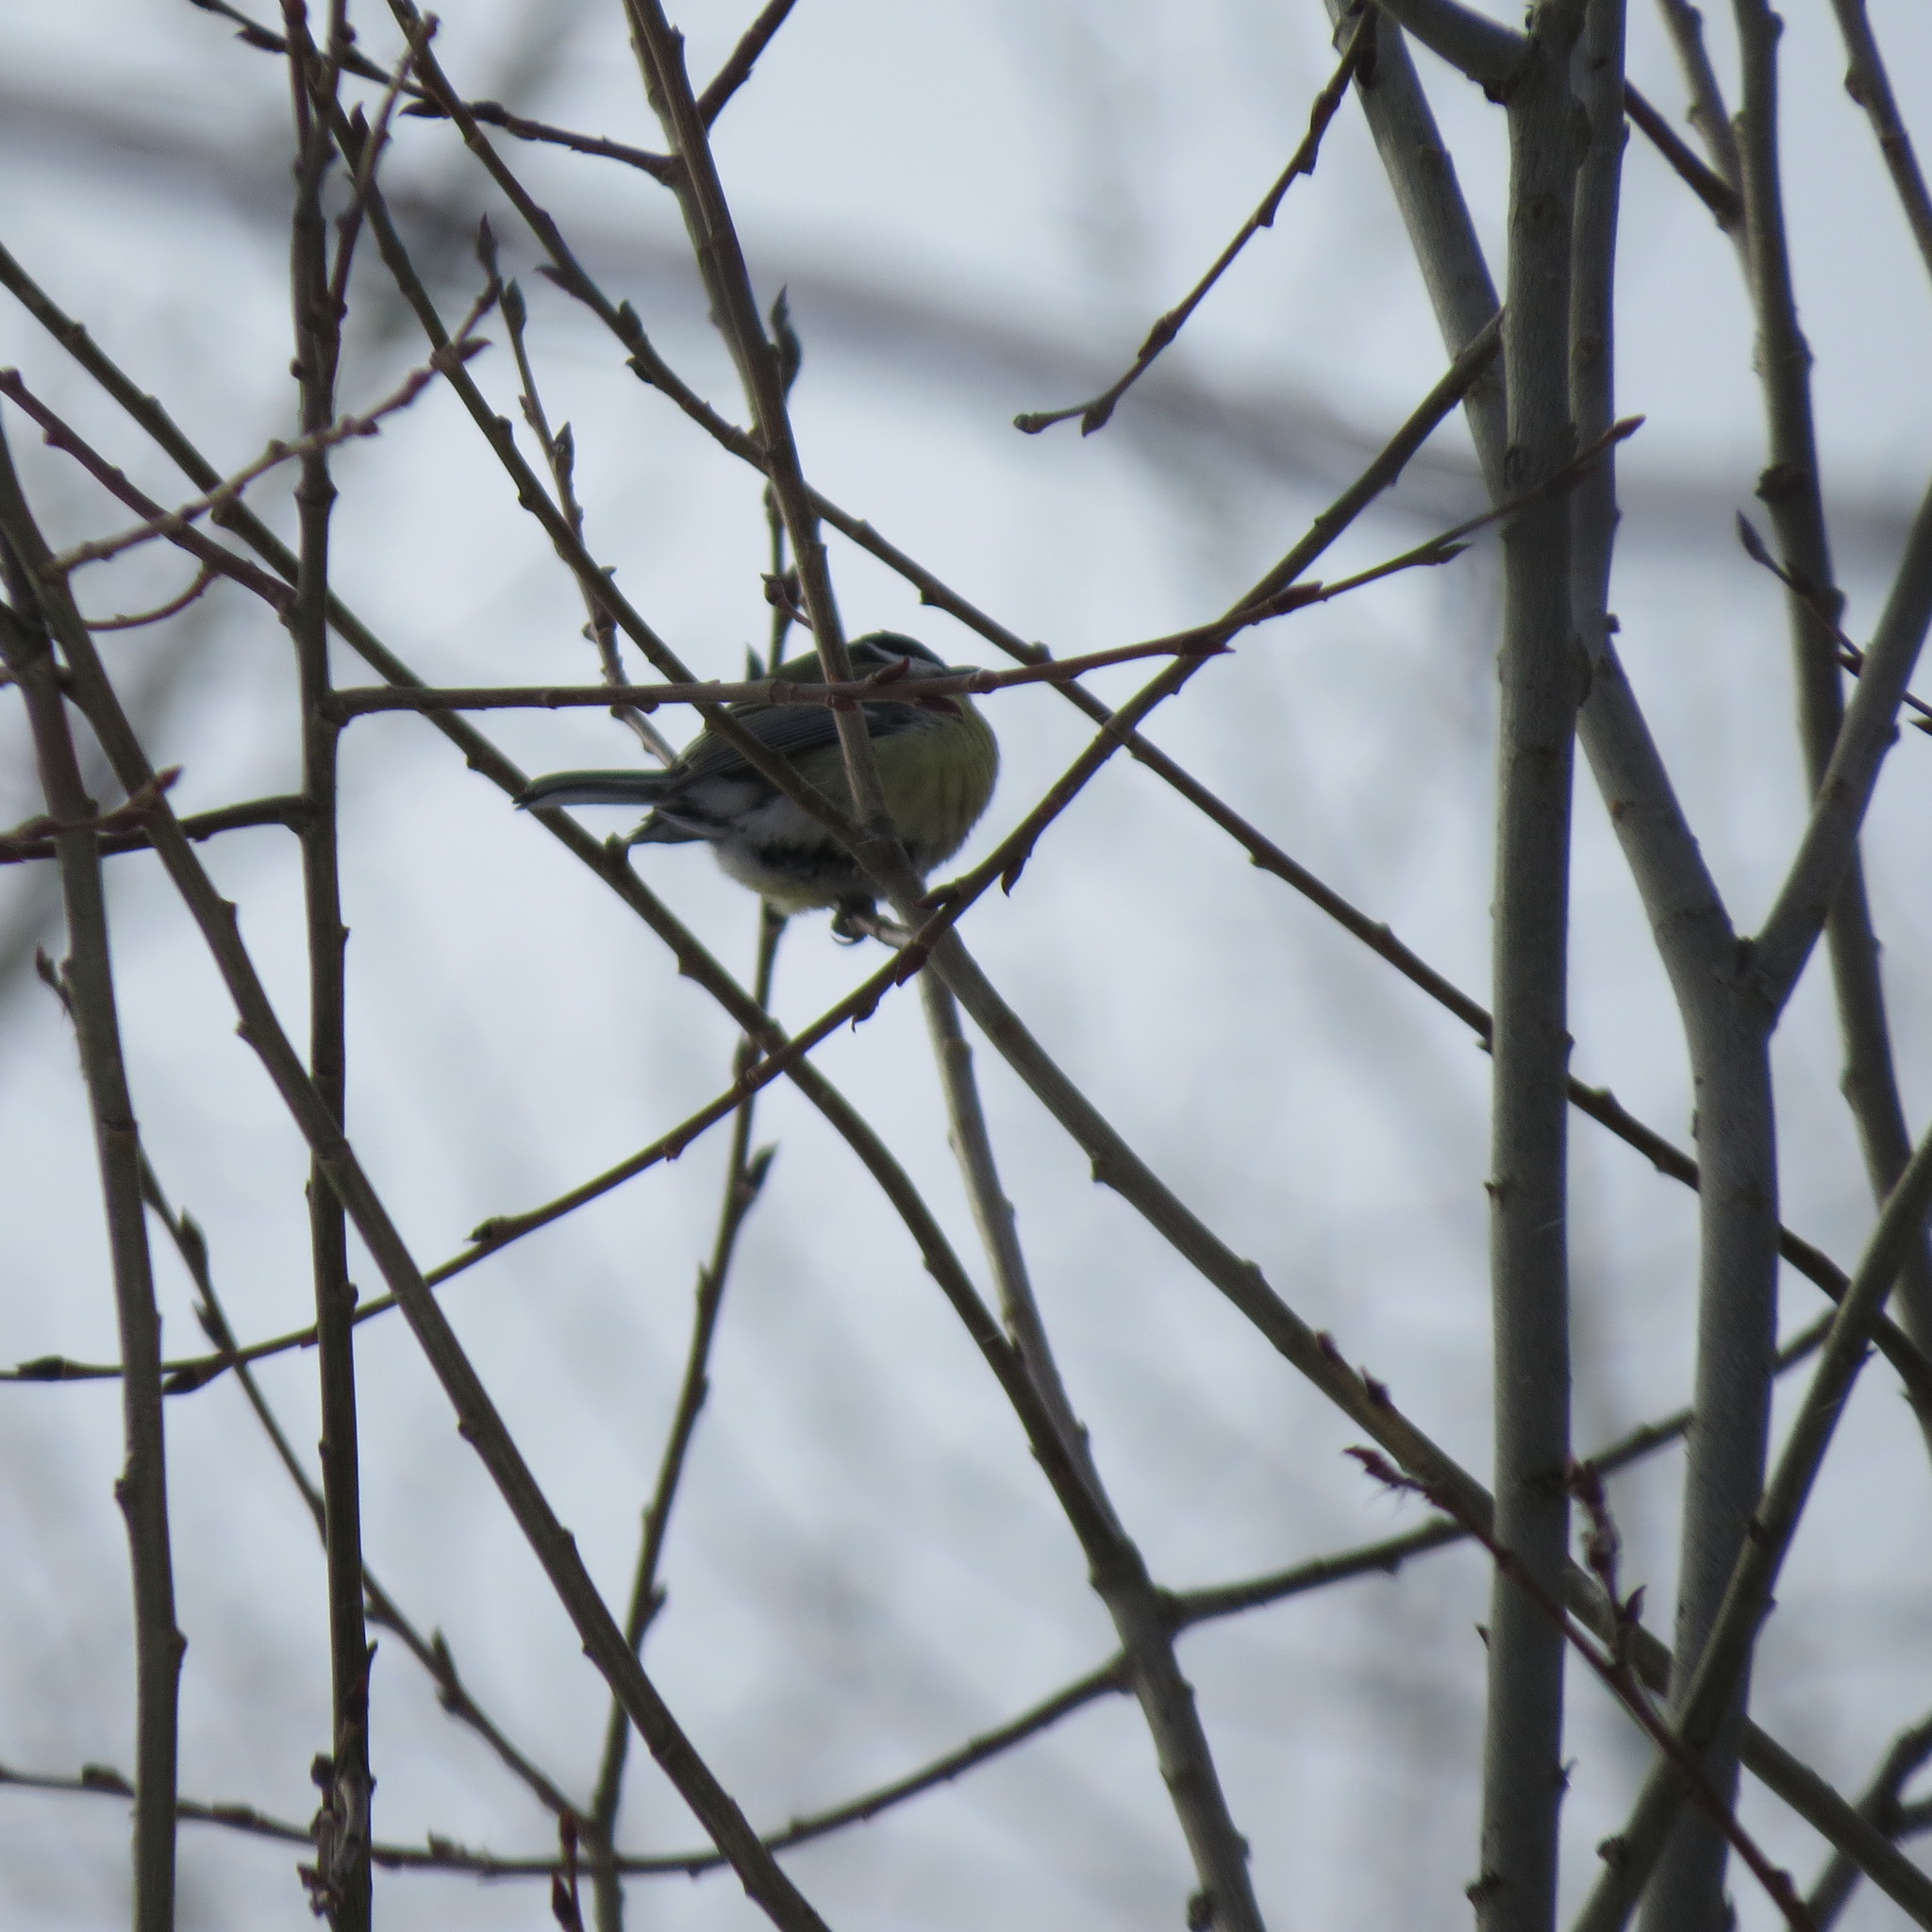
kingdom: Animalia
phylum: Chordata
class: Aves
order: Passeriformes
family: Paridae
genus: Parus
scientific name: Parus major
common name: Great tit
